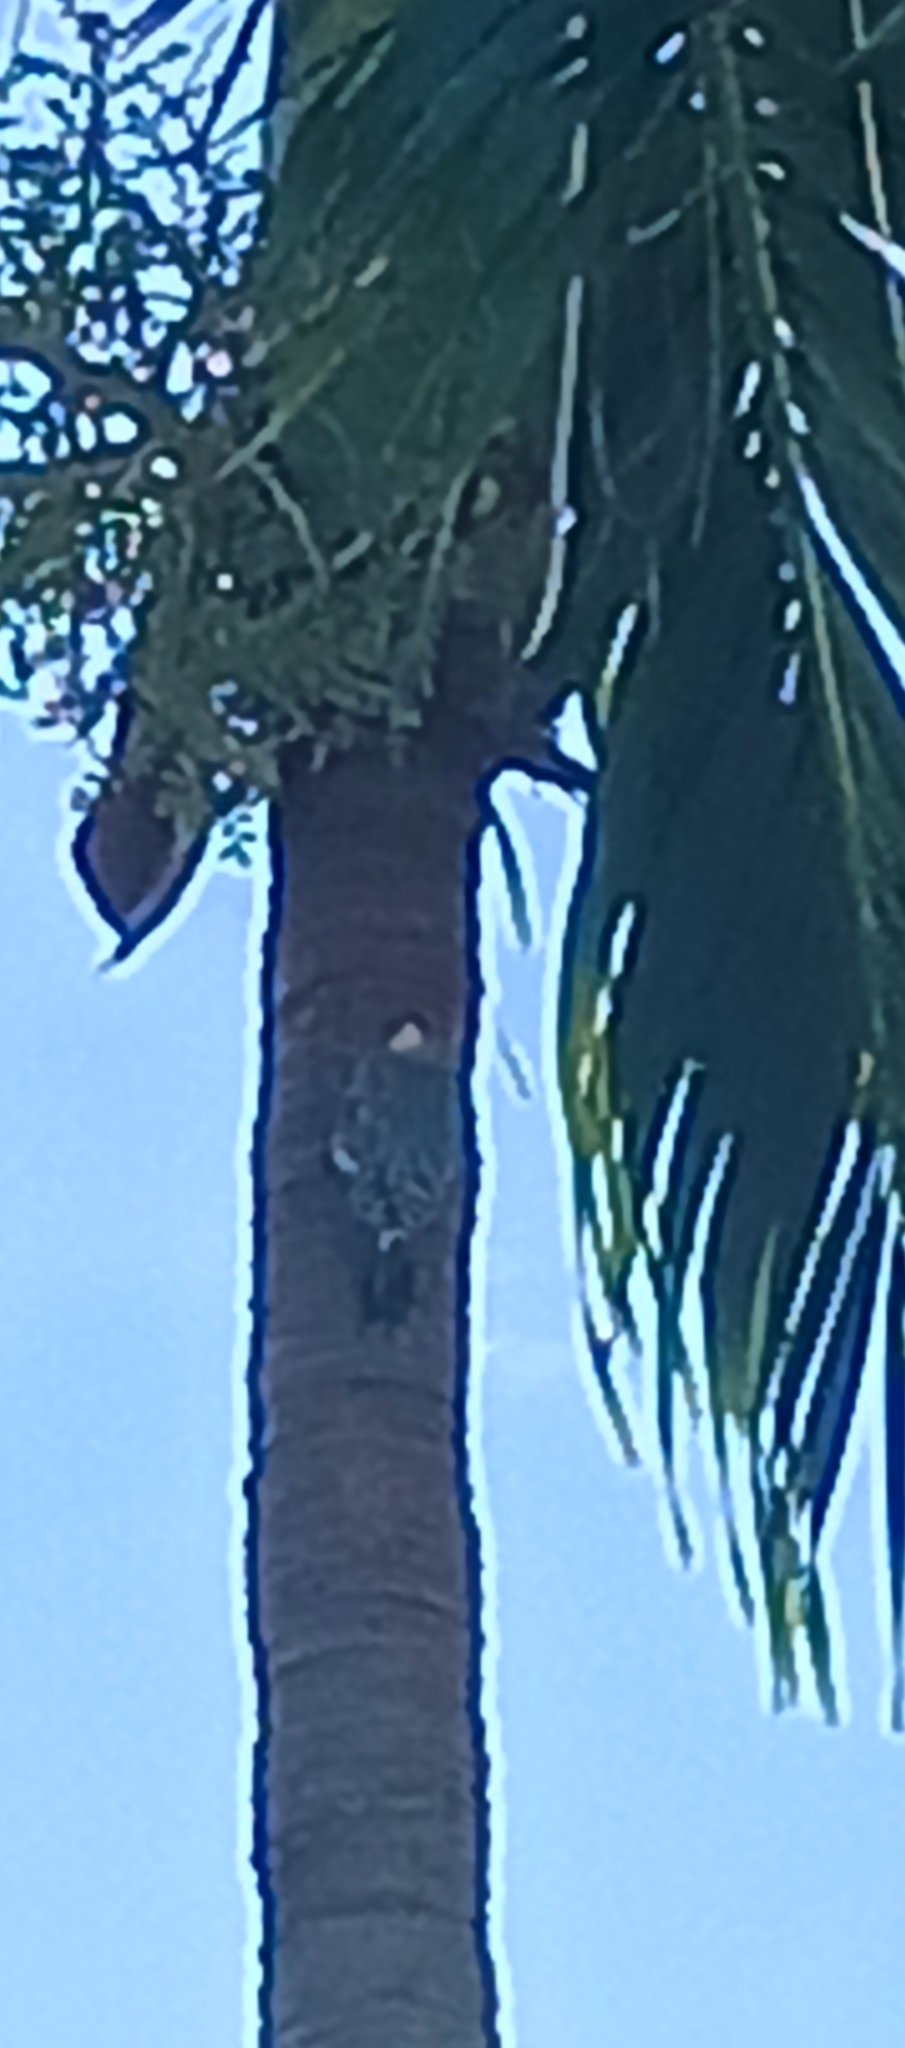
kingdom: Animalia
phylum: Chordata
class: Aves
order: Piciformes
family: Picidae
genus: Melanerpes
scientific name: Melanerpes carolinus
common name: Red-bellied woodpecker
